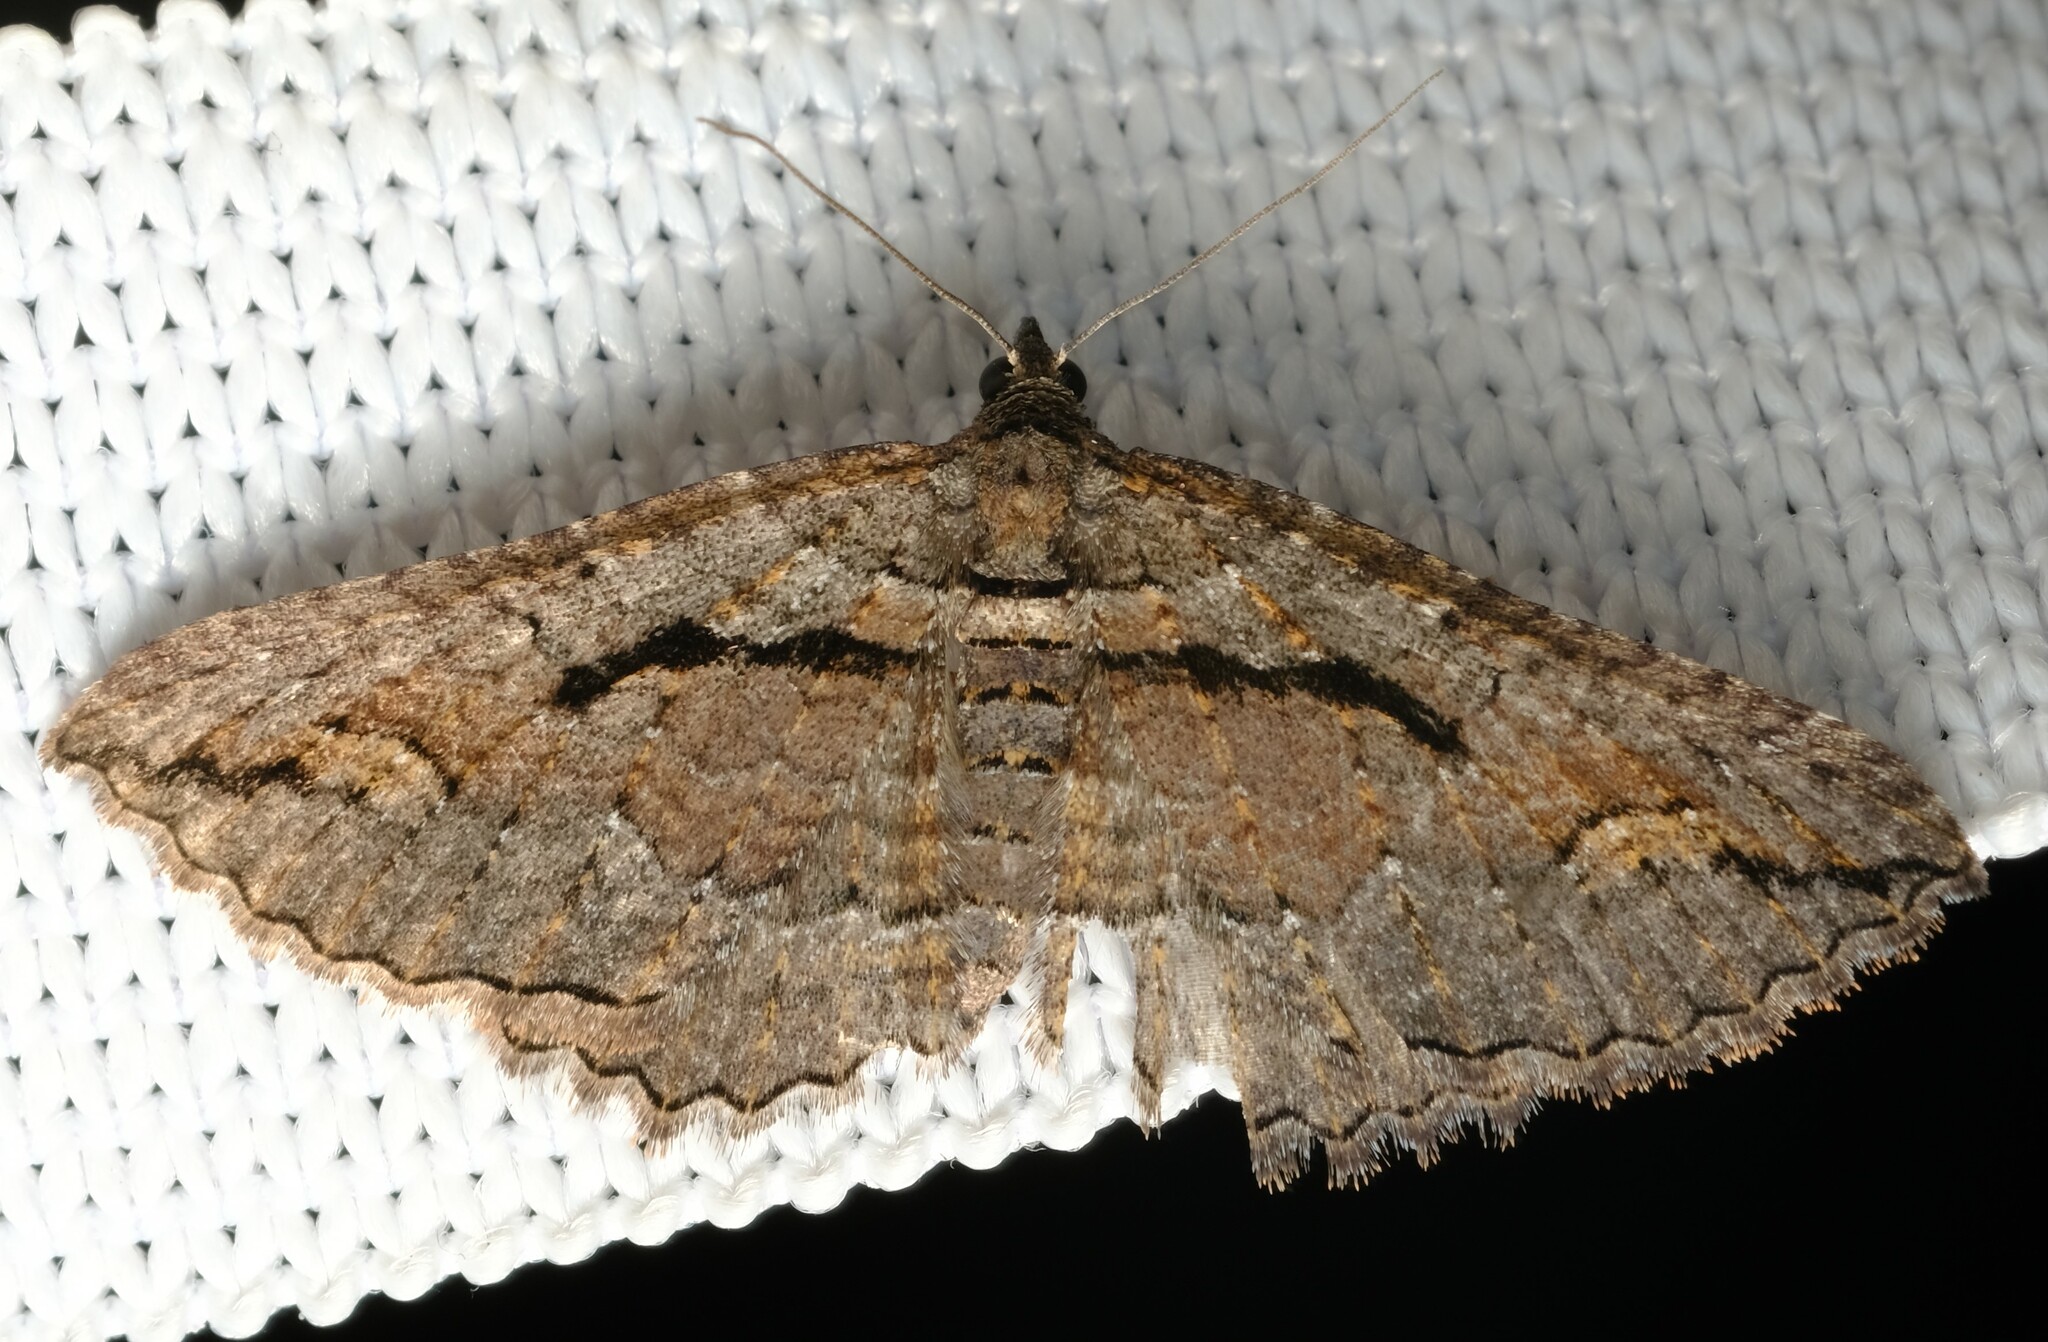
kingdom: Animalia
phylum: Arthropoda
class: Insecta
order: Lepidoptera
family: Geometridae
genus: Chrysolarentia
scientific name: Chrysolarentia plagiocausta
